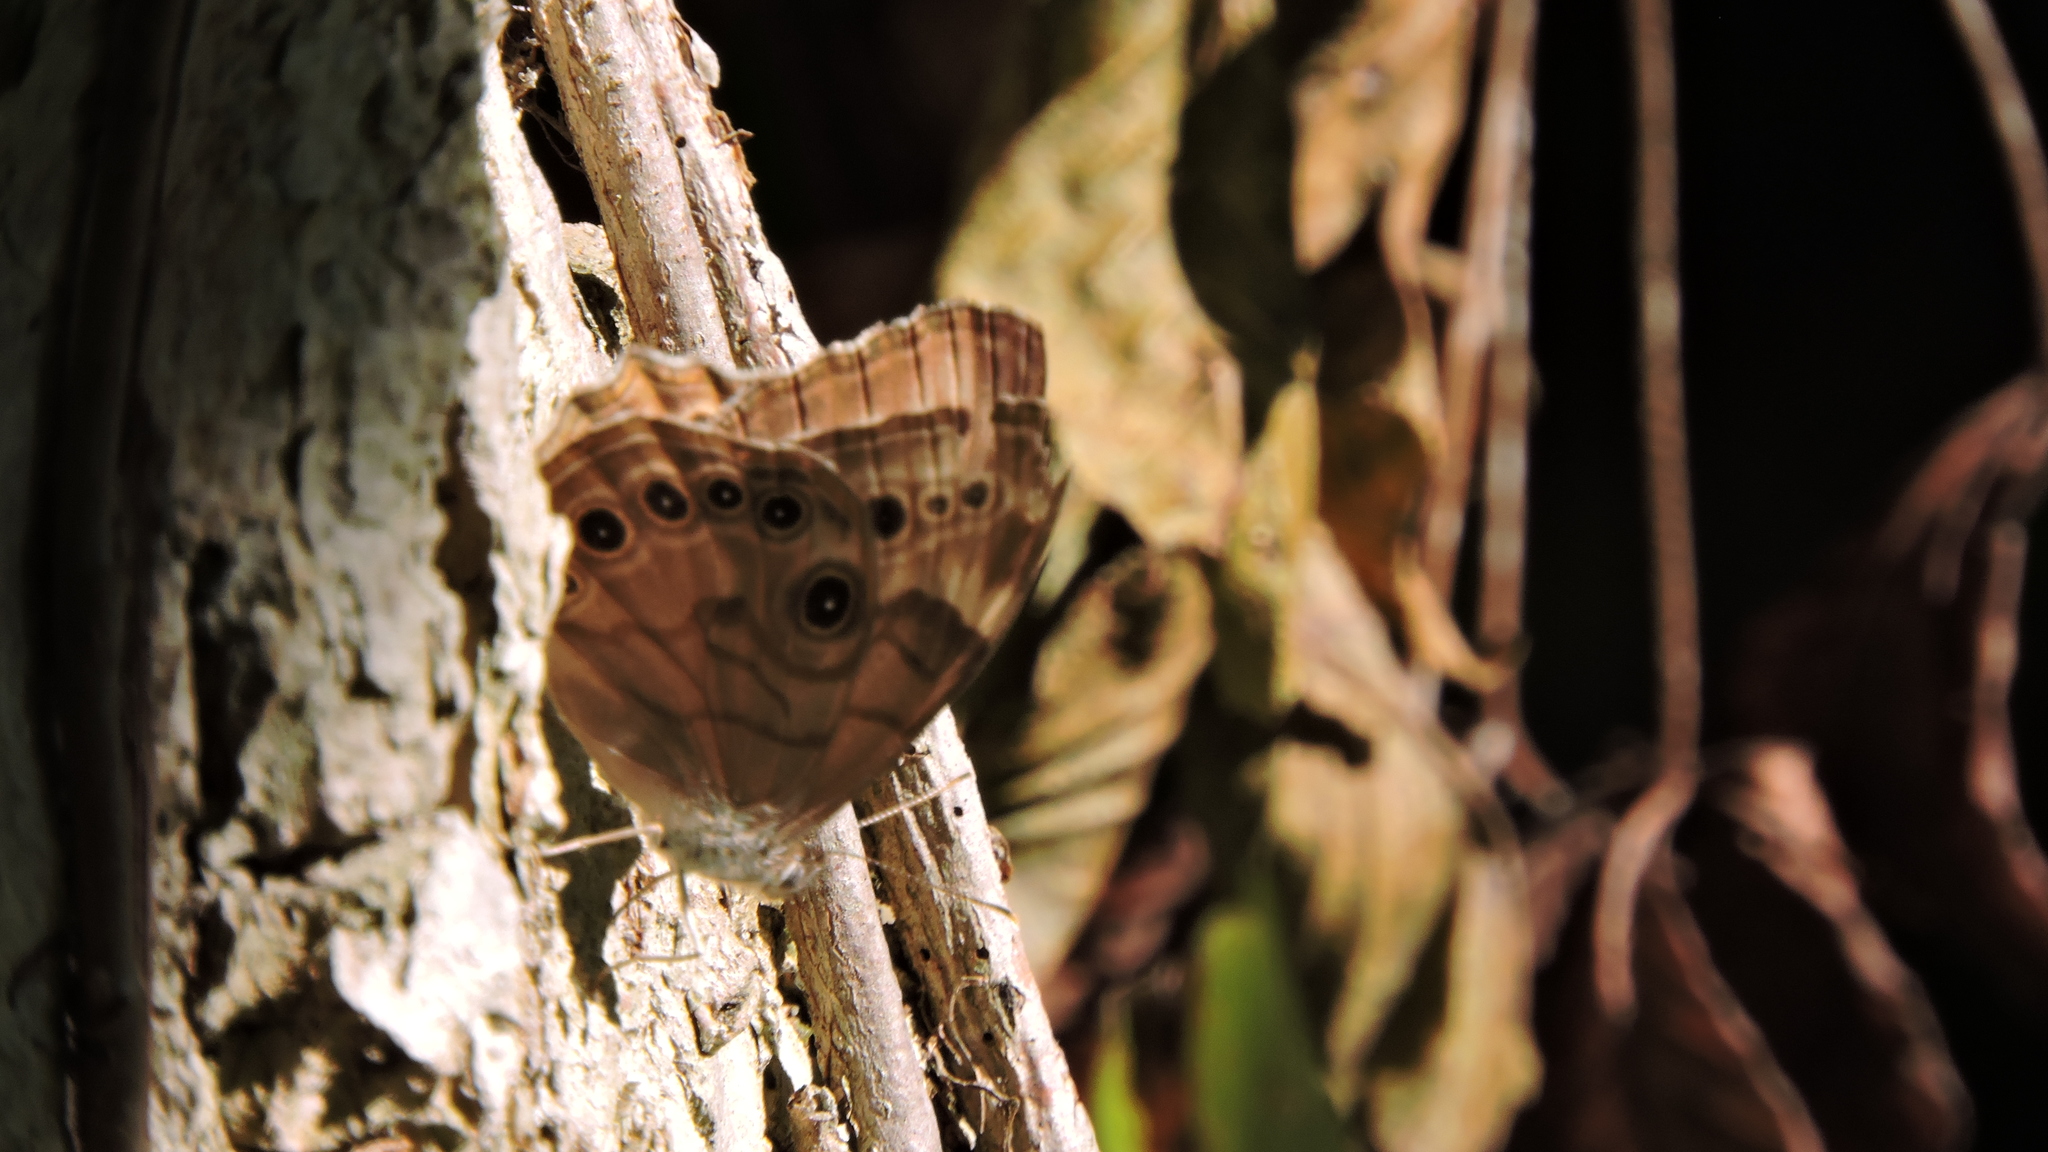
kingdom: Animalia
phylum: Arthropoda
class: Insecta
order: Lepidoptera
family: Nymphalidae
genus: Lethe
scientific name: Lethe anthedon
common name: Northern pearly-eye
